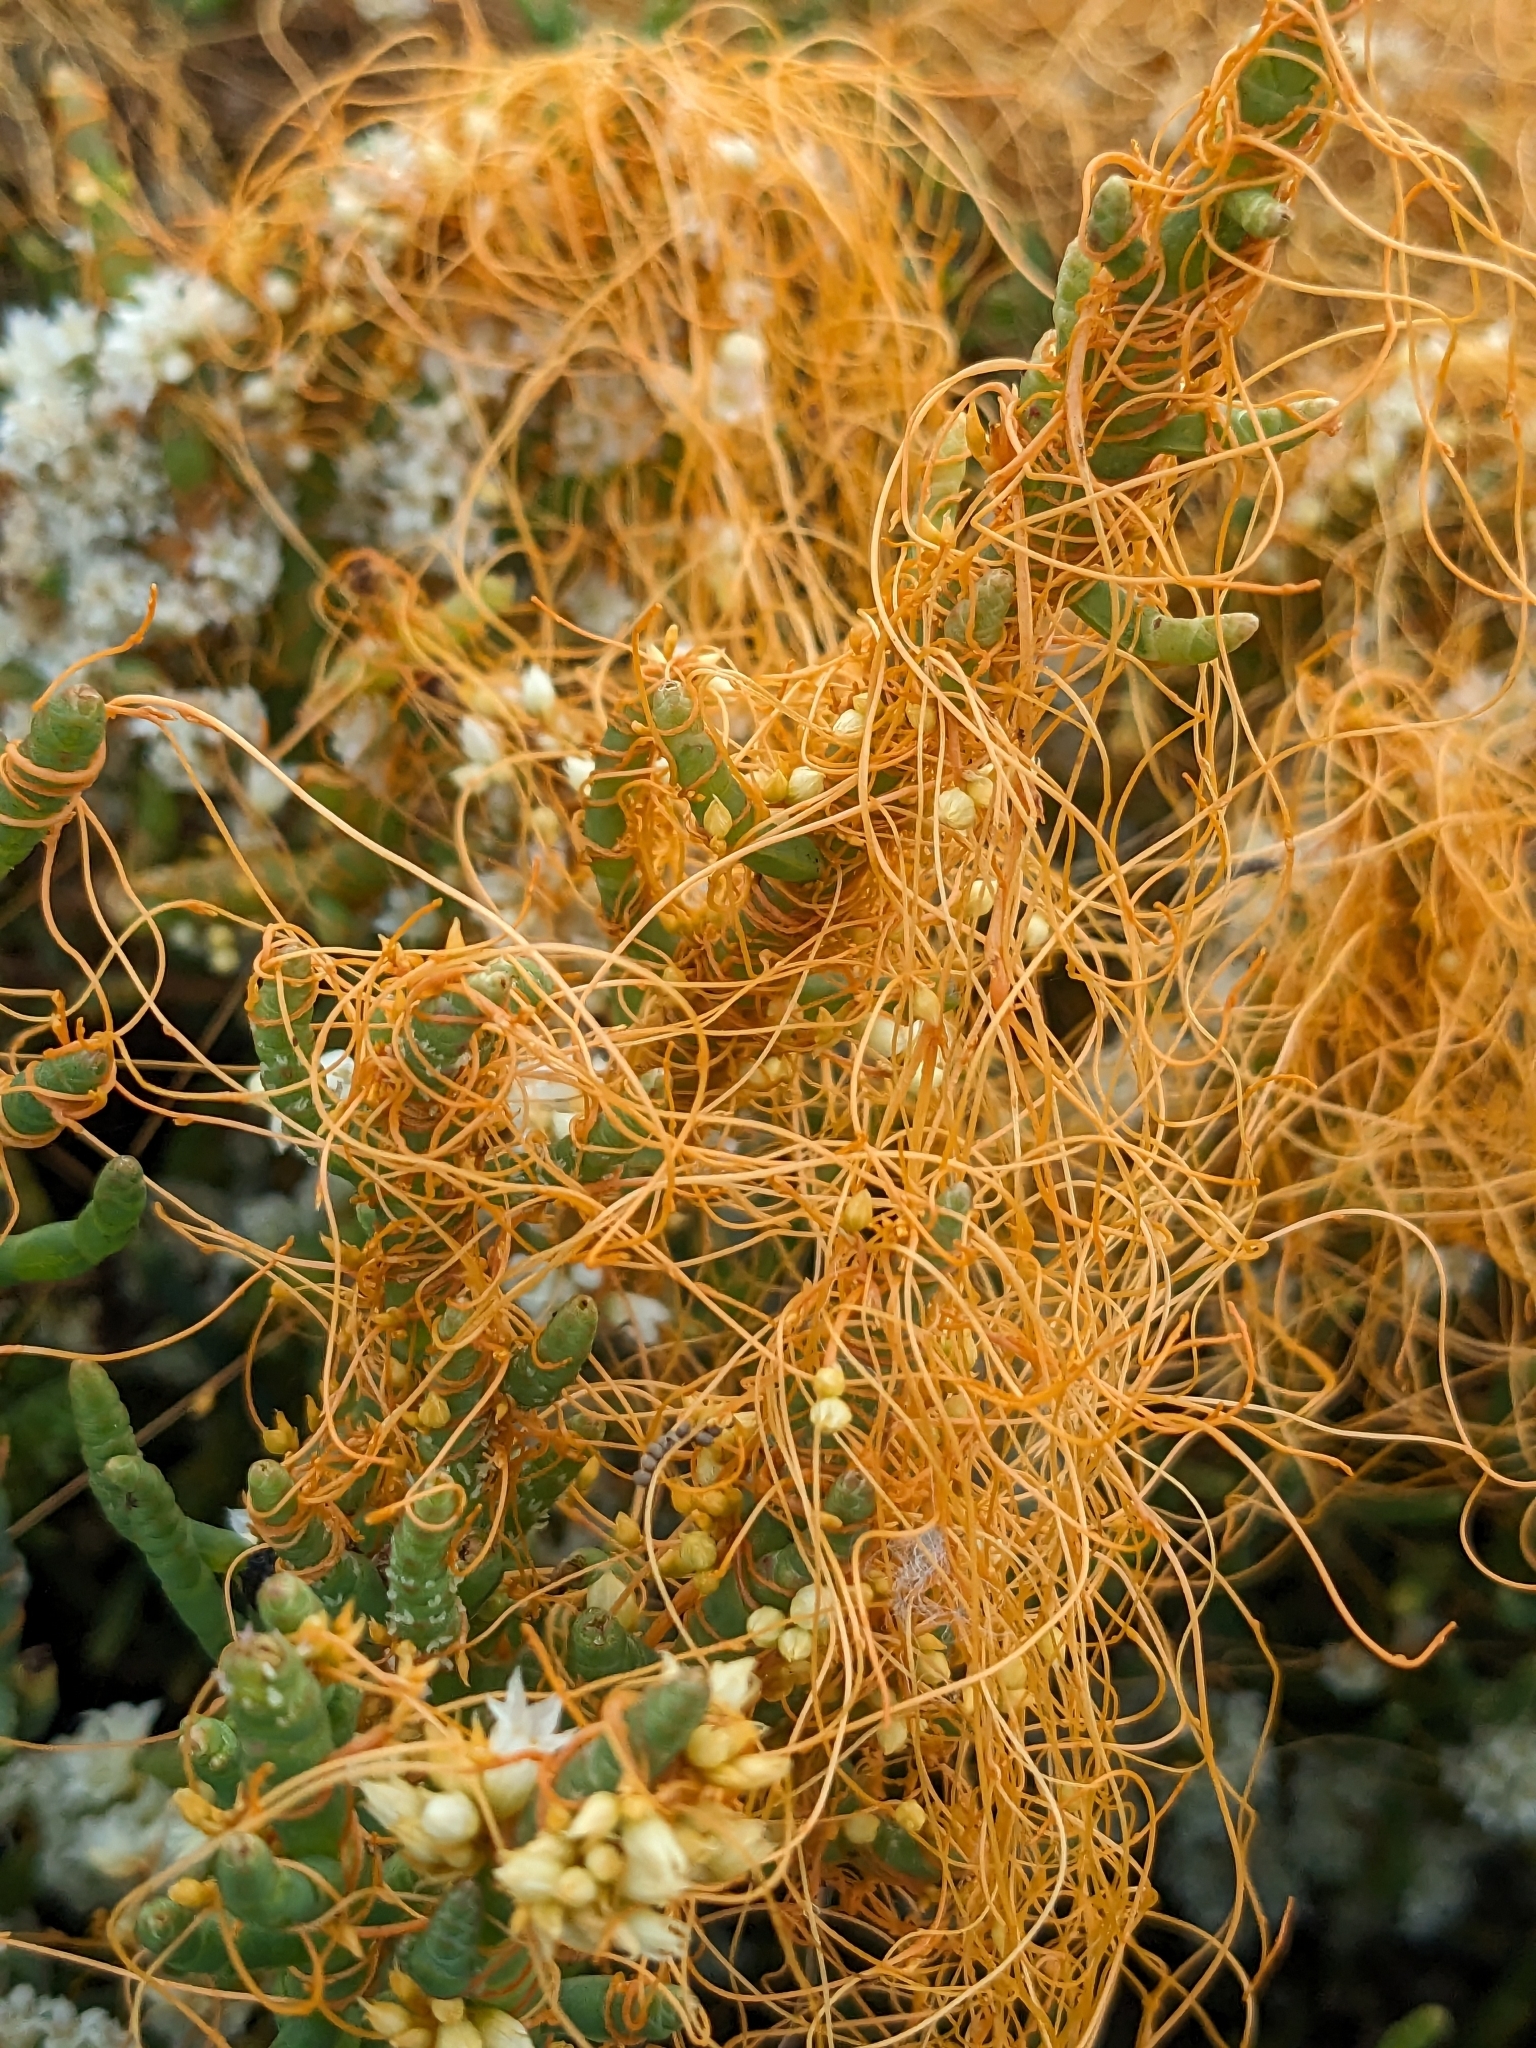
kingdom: Plantae
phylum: Tracheophyta
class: Magnoliopsida
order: Solanales
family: Convolvulaceae
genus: Cuscuta
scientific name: Cuscuta pacifica
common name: Large saltmarsh dodder
